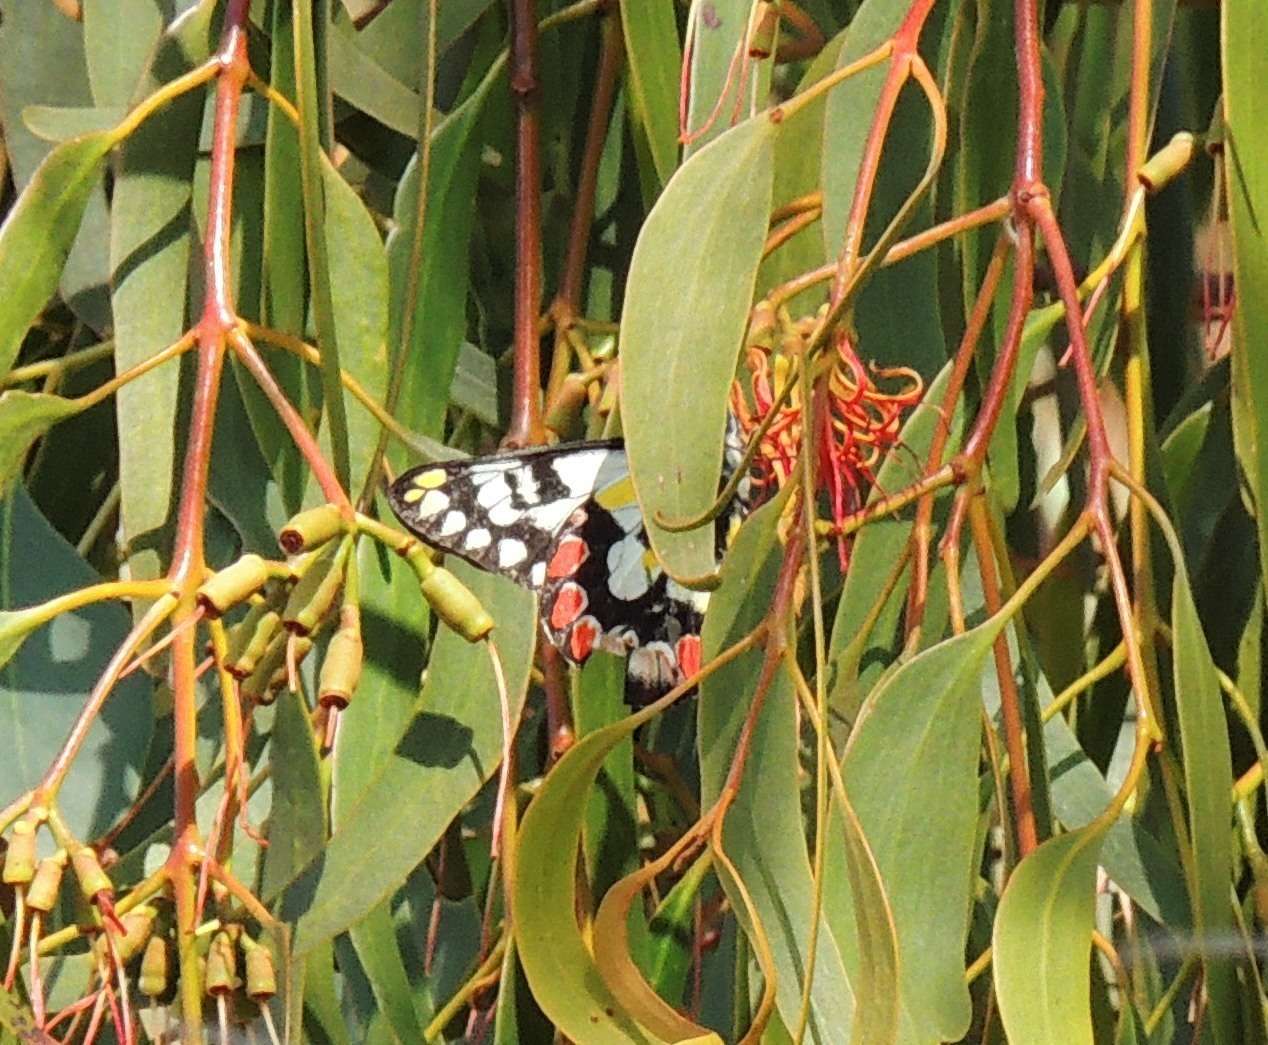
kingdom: Animalia
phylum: Arthropoda
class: Insecta
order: Lepidoptera
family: Pieridae
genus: Delias
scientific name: Delias aganippe
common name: Red-spotted jezebel
